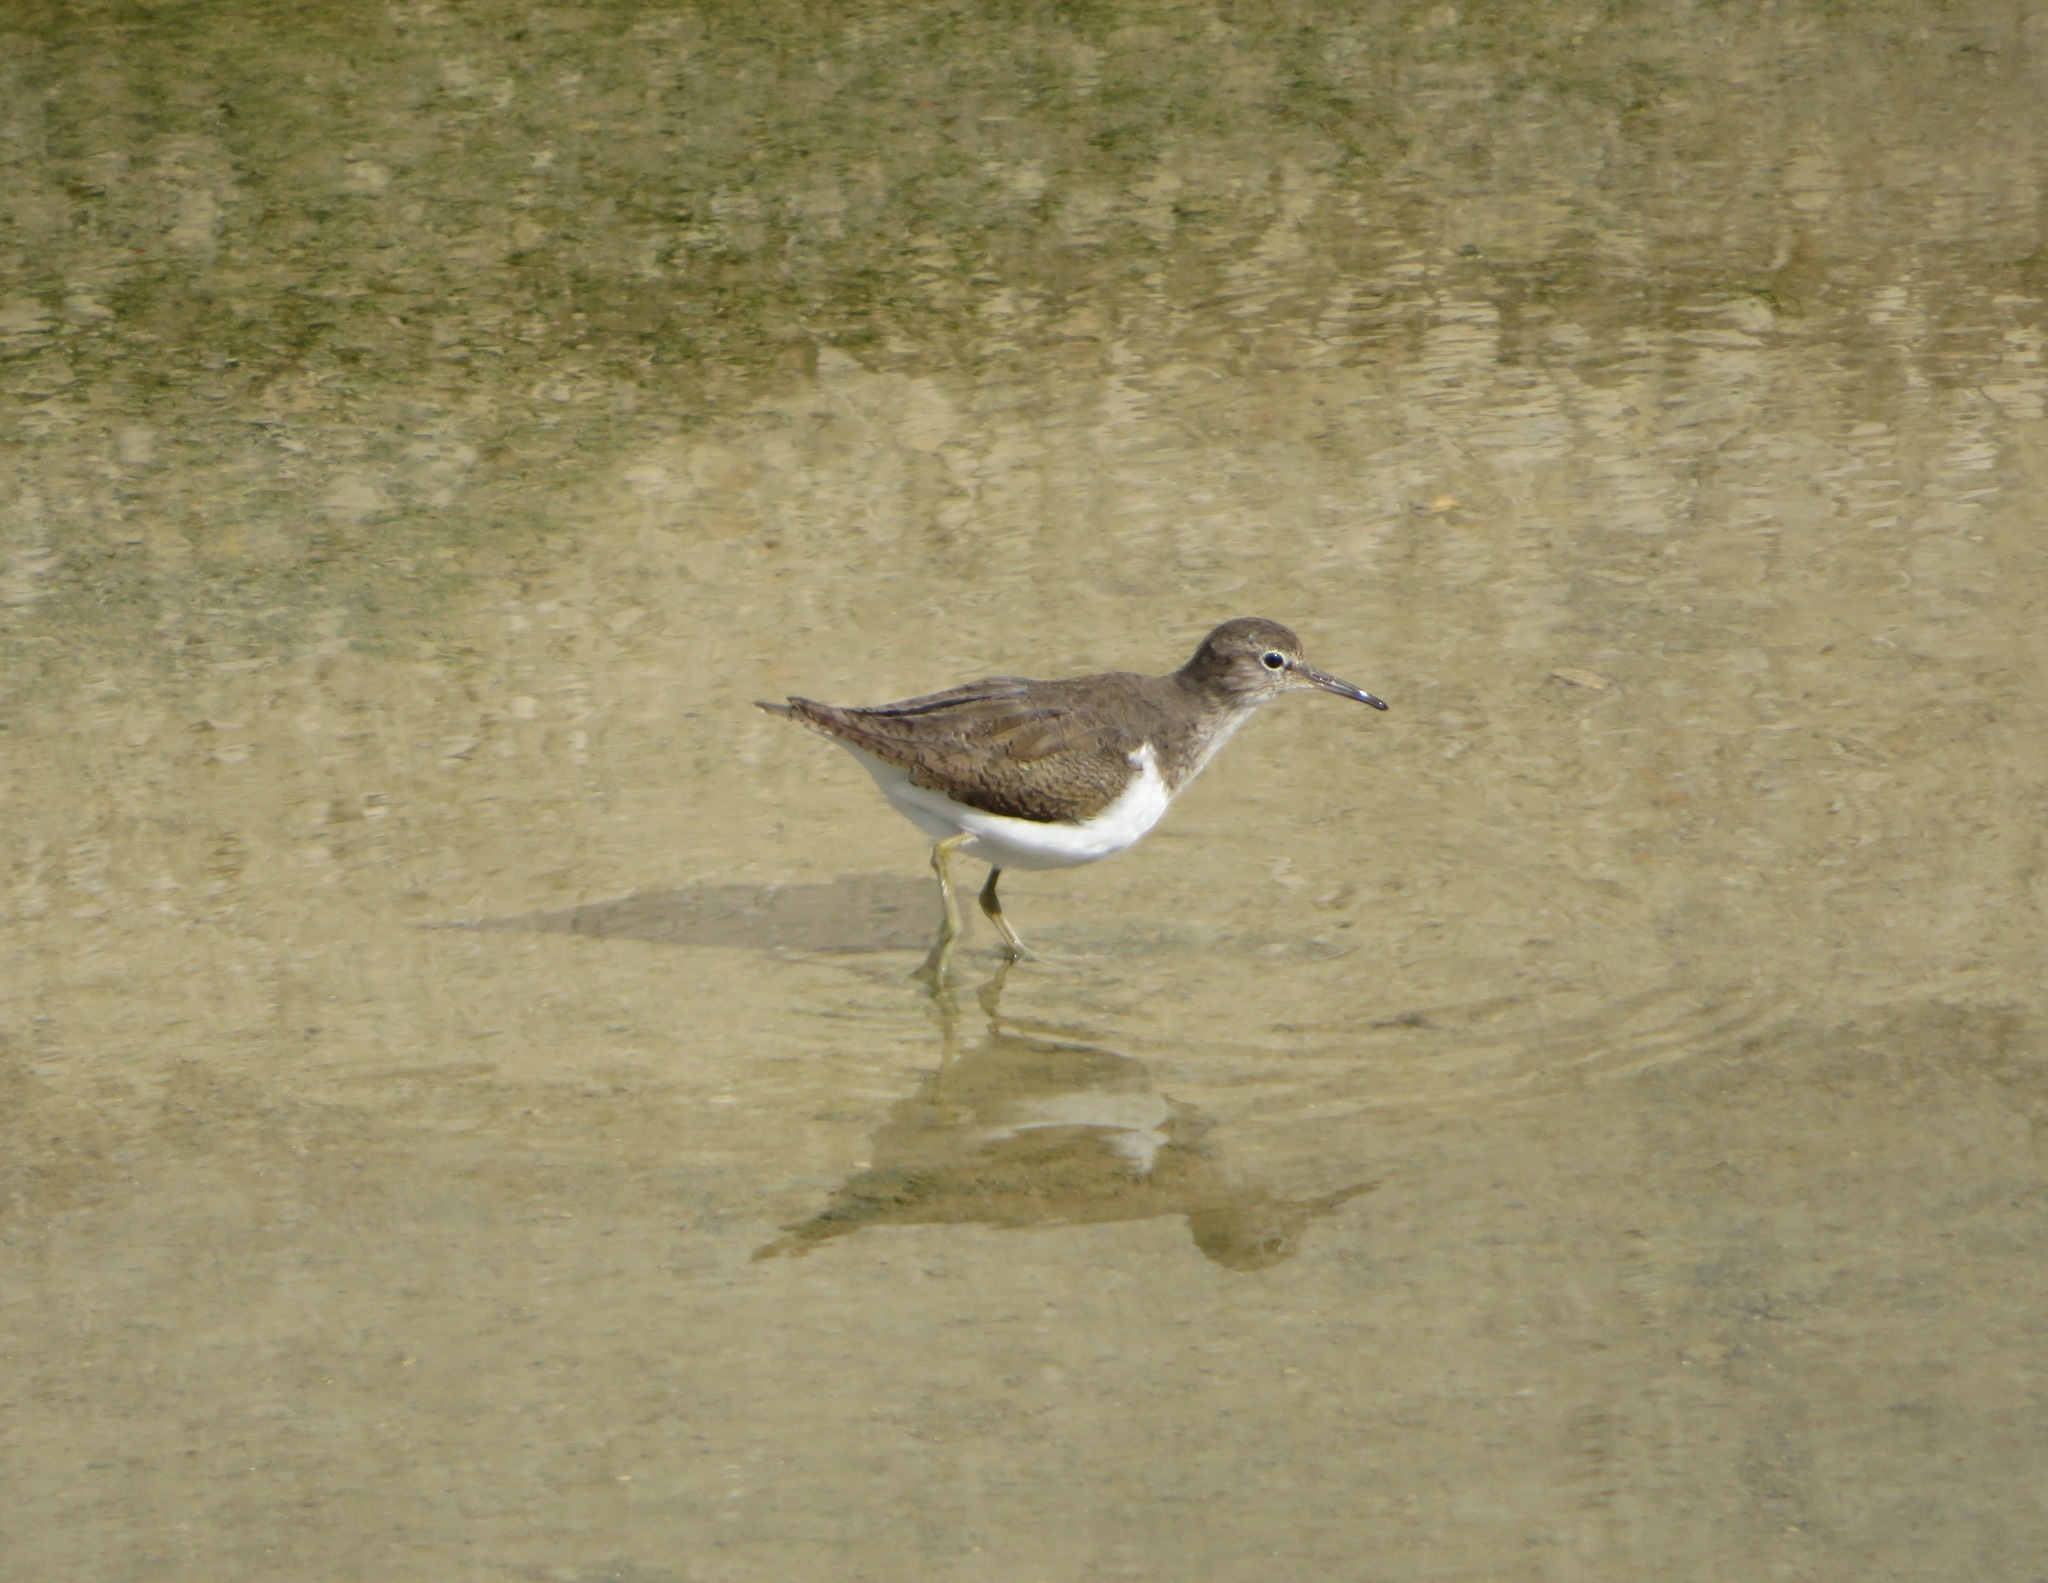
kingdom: Animalia
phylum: Chordata
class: Aves
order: Charadriiformes
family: Scolopacidae
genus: Actitis
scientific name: Actitis hypoleucos
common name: Common sandpiper
